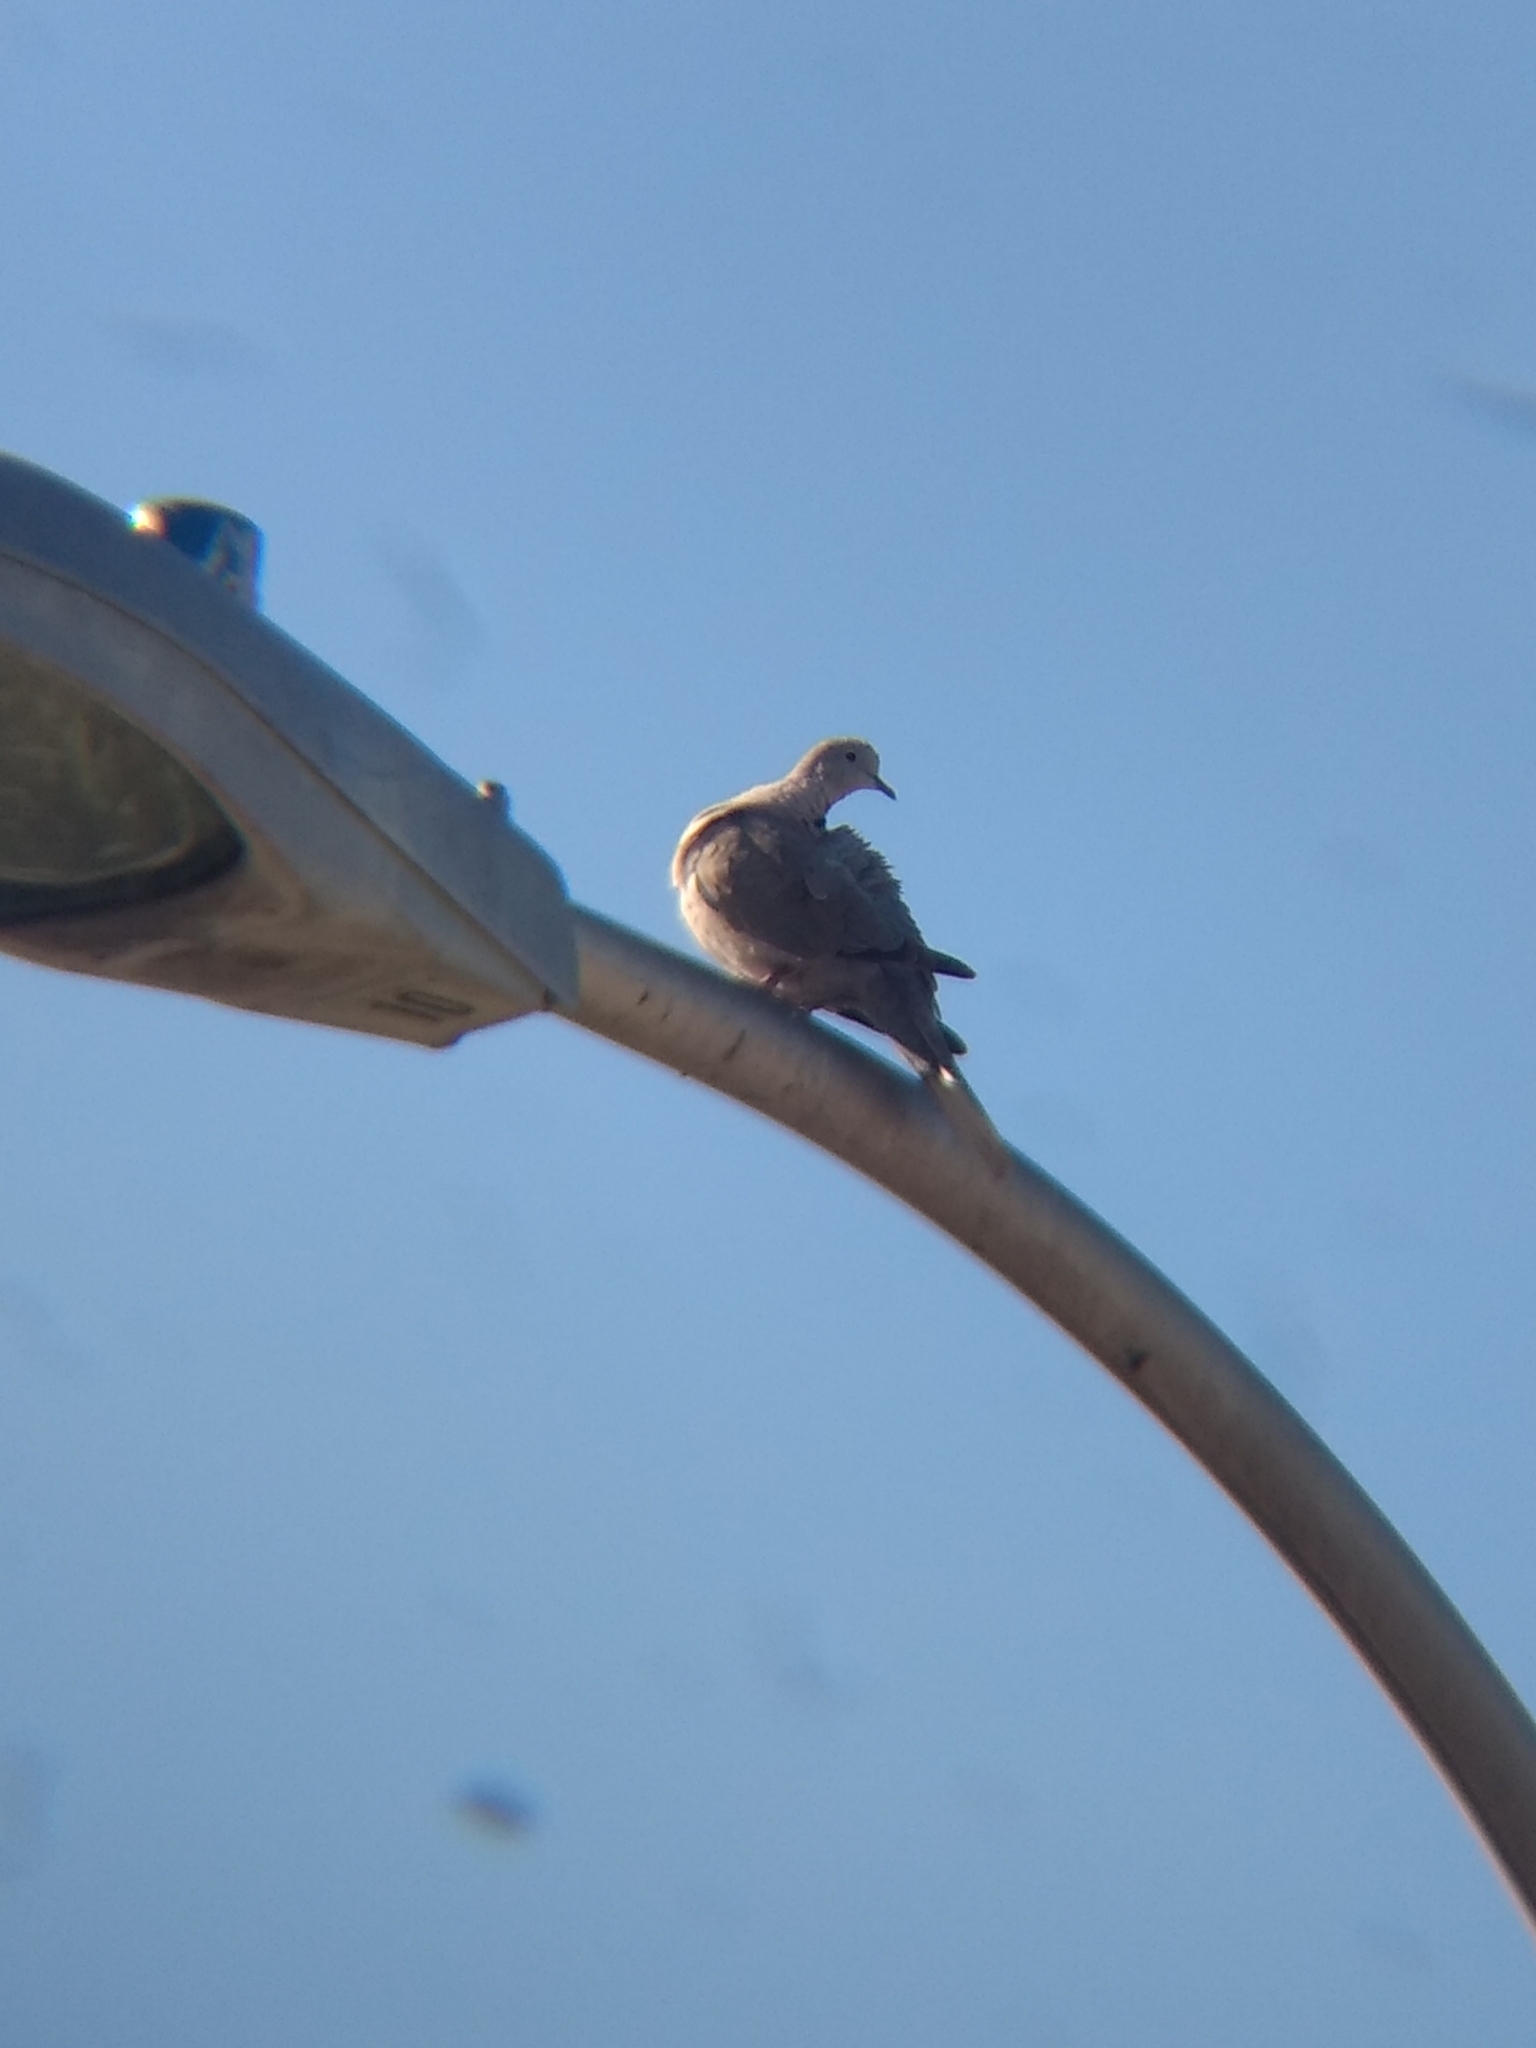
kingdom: Animalia
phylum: Chordata
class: Aves
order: Columbiformes
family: Columbidae
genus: Streptopelia
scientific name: Streptopelia decaocto
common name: Eurasian collared dove
